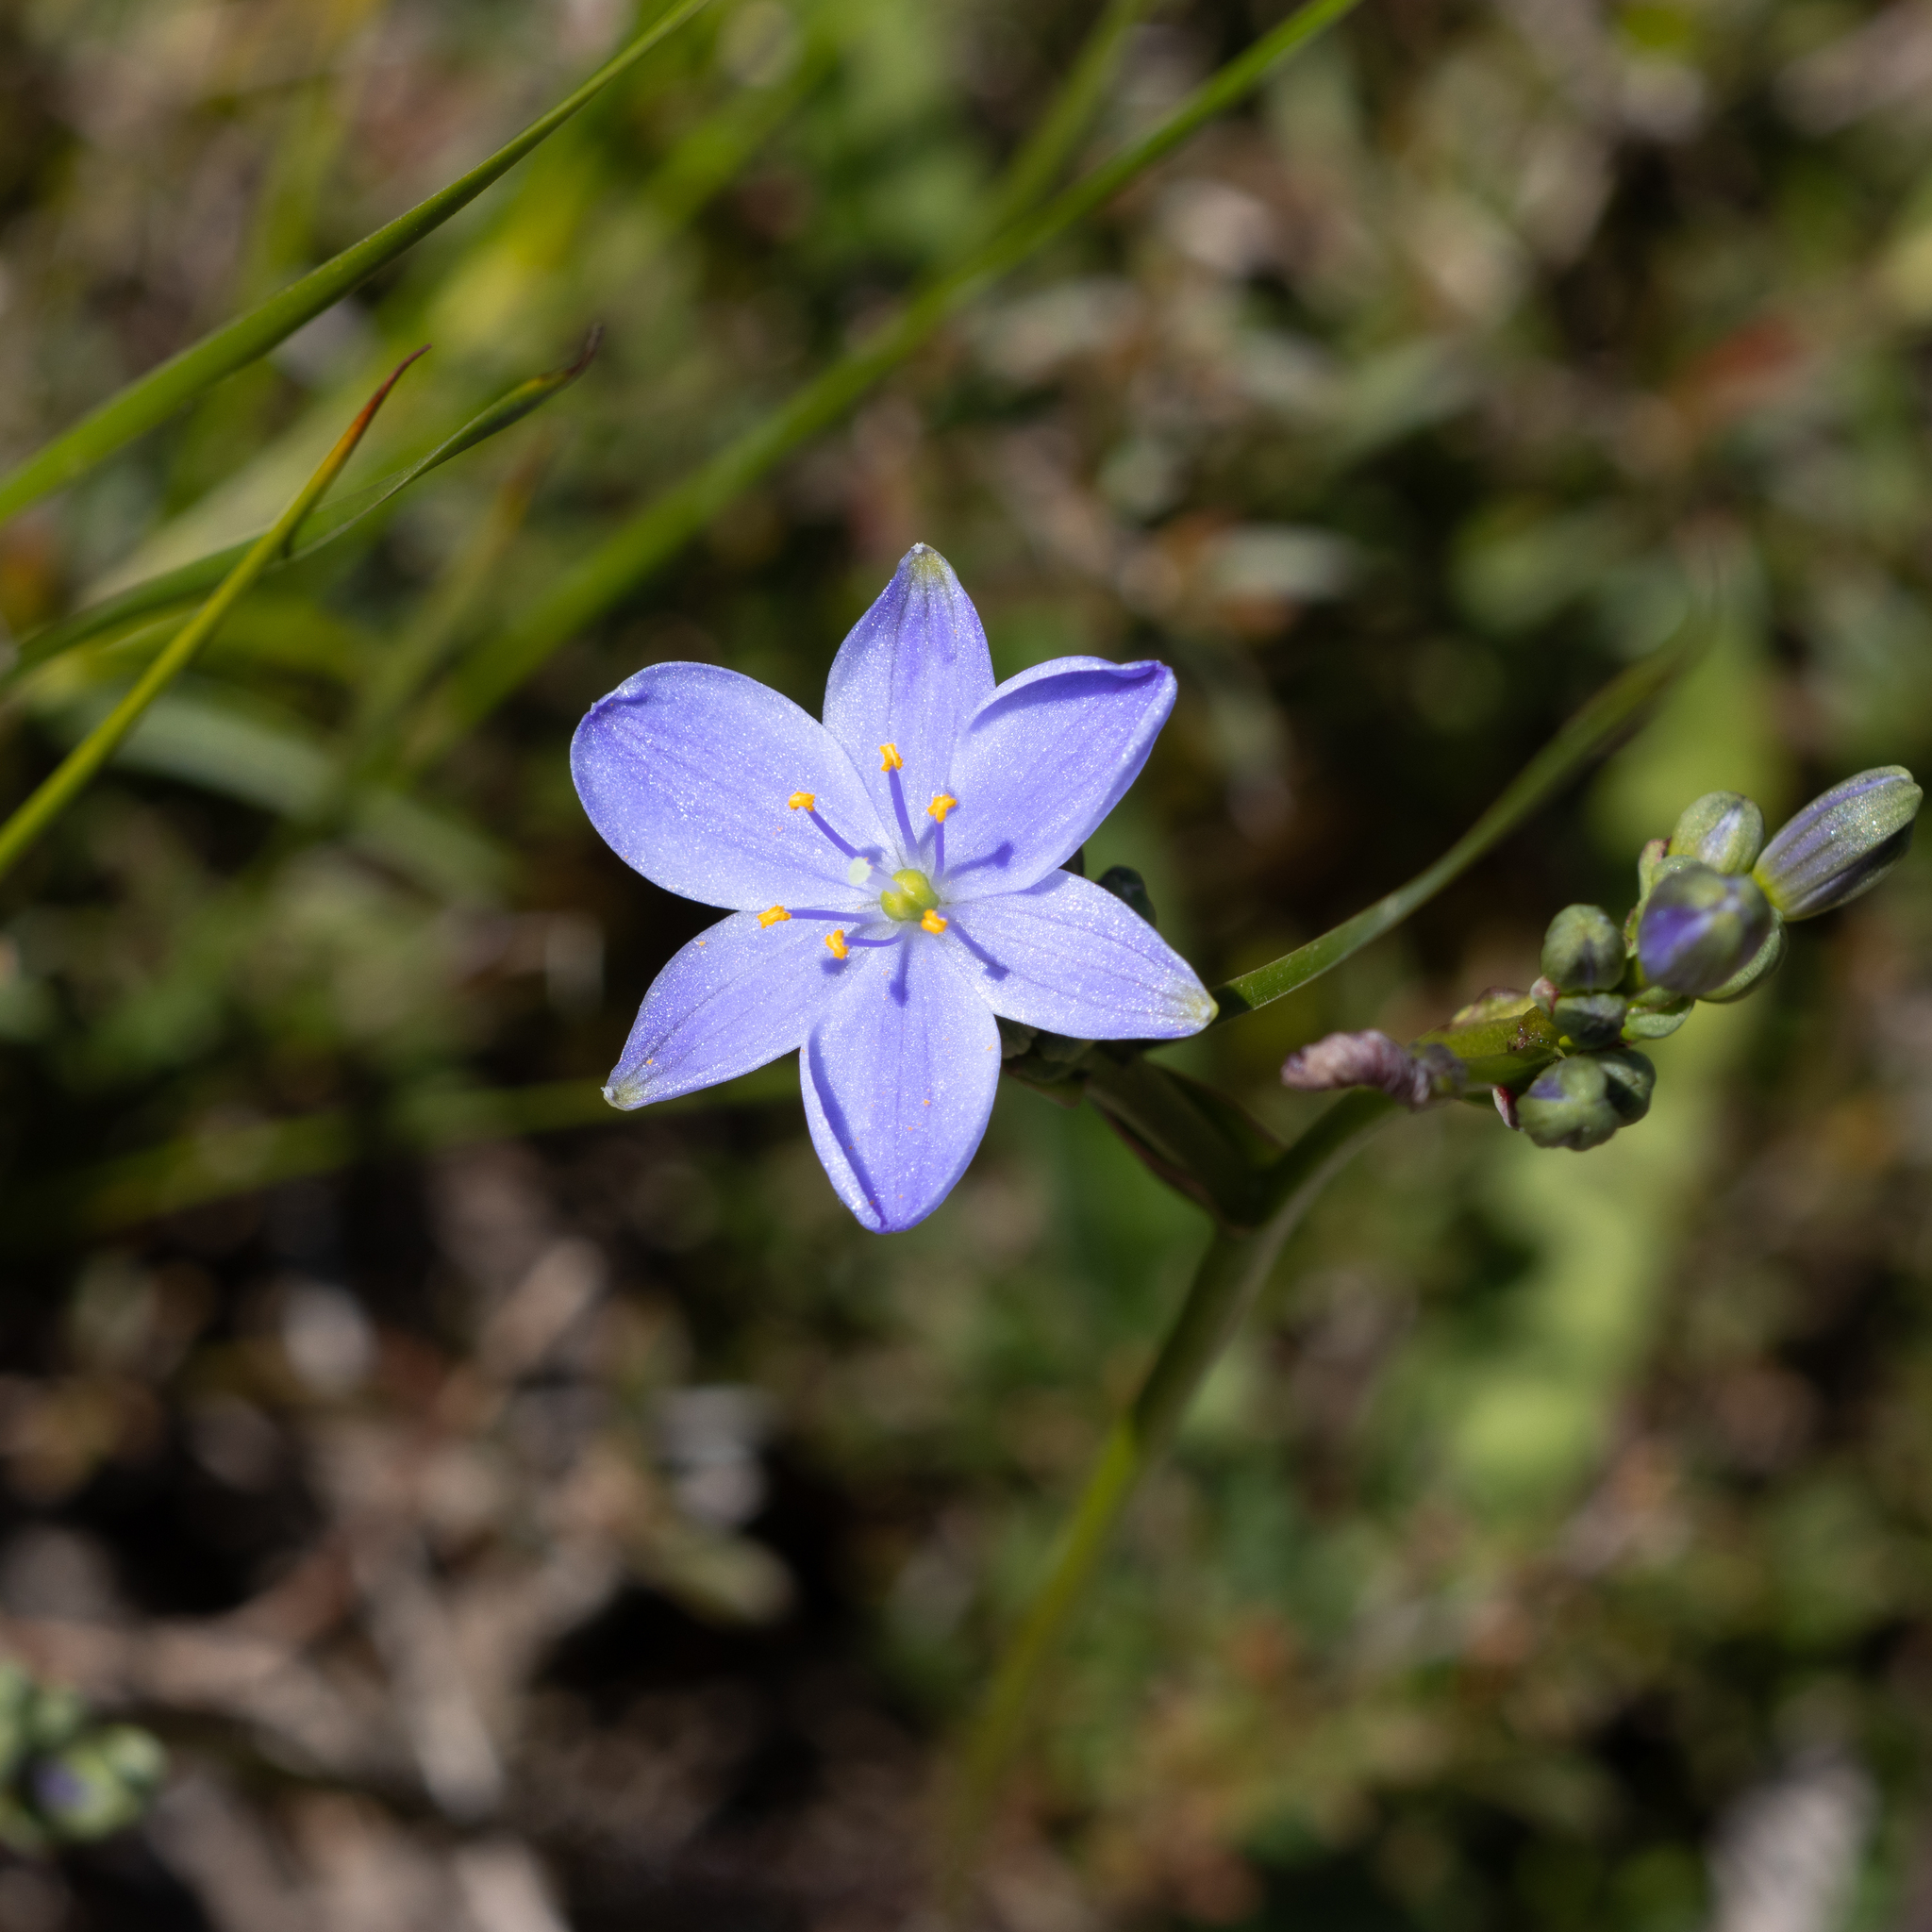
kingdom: Plantae
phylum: Tracheophyta
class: Liliopsida
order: Asparagales
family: Asphodelaceae
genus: Chamaescilla
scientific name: Chamaescilla corymbosa
